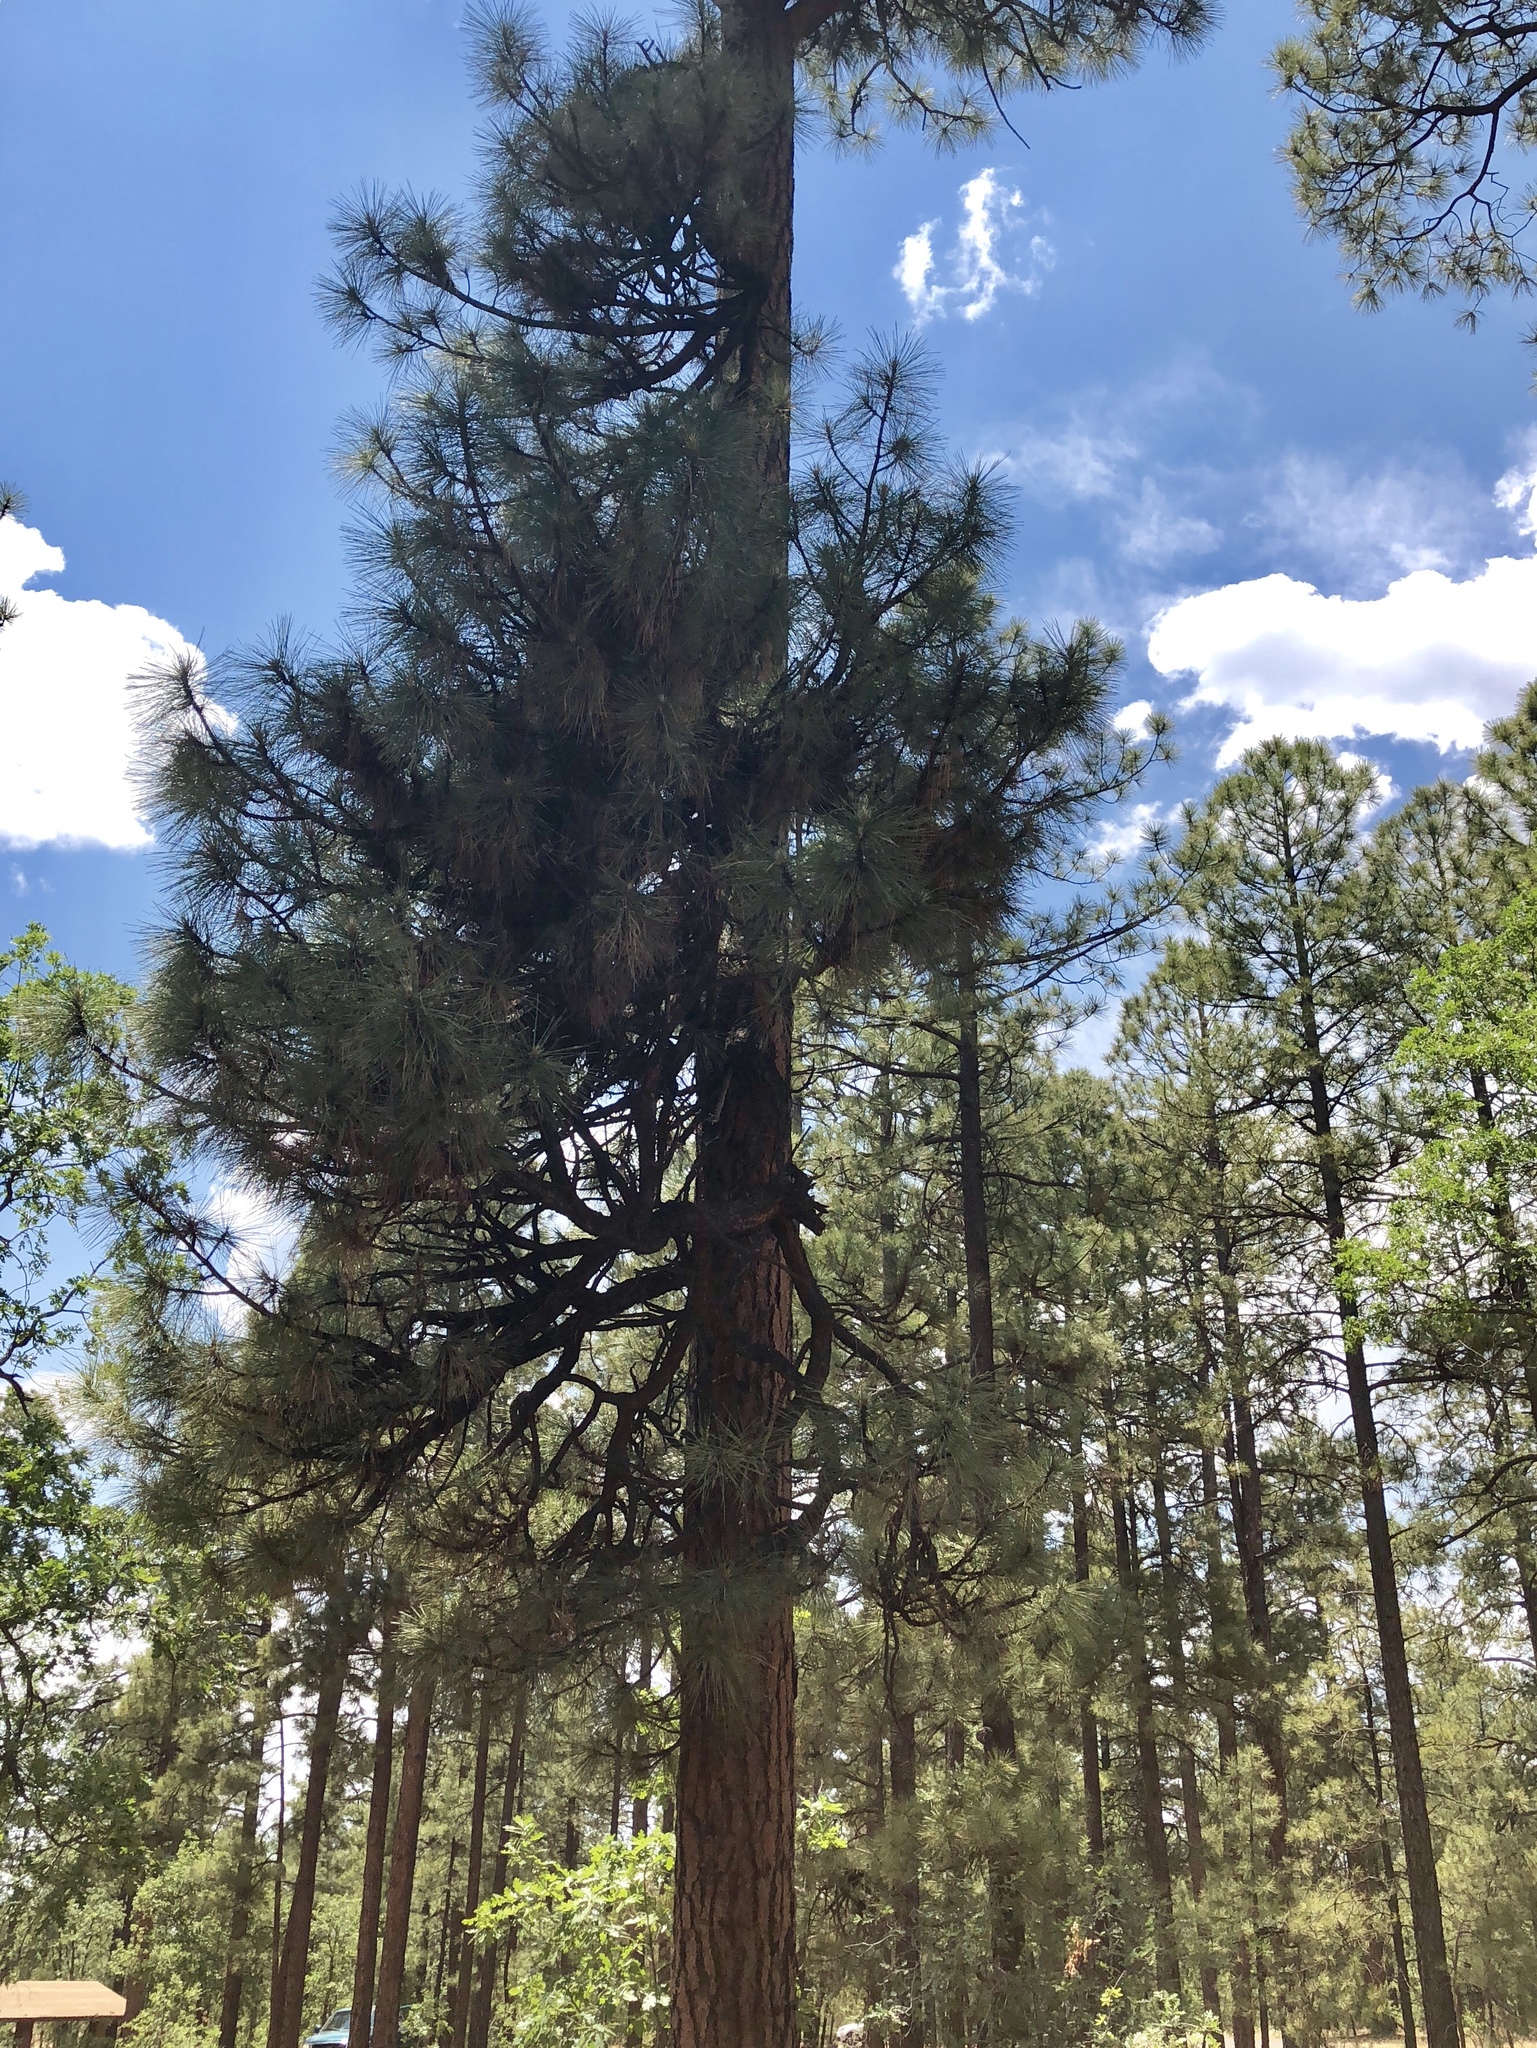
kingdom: Plantae
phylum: Tracheophyta
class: Pinopsida
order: Pinales
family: Pinaceae
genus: Pinus
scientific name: Pinus ponderosa
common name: Western yellow-pine
